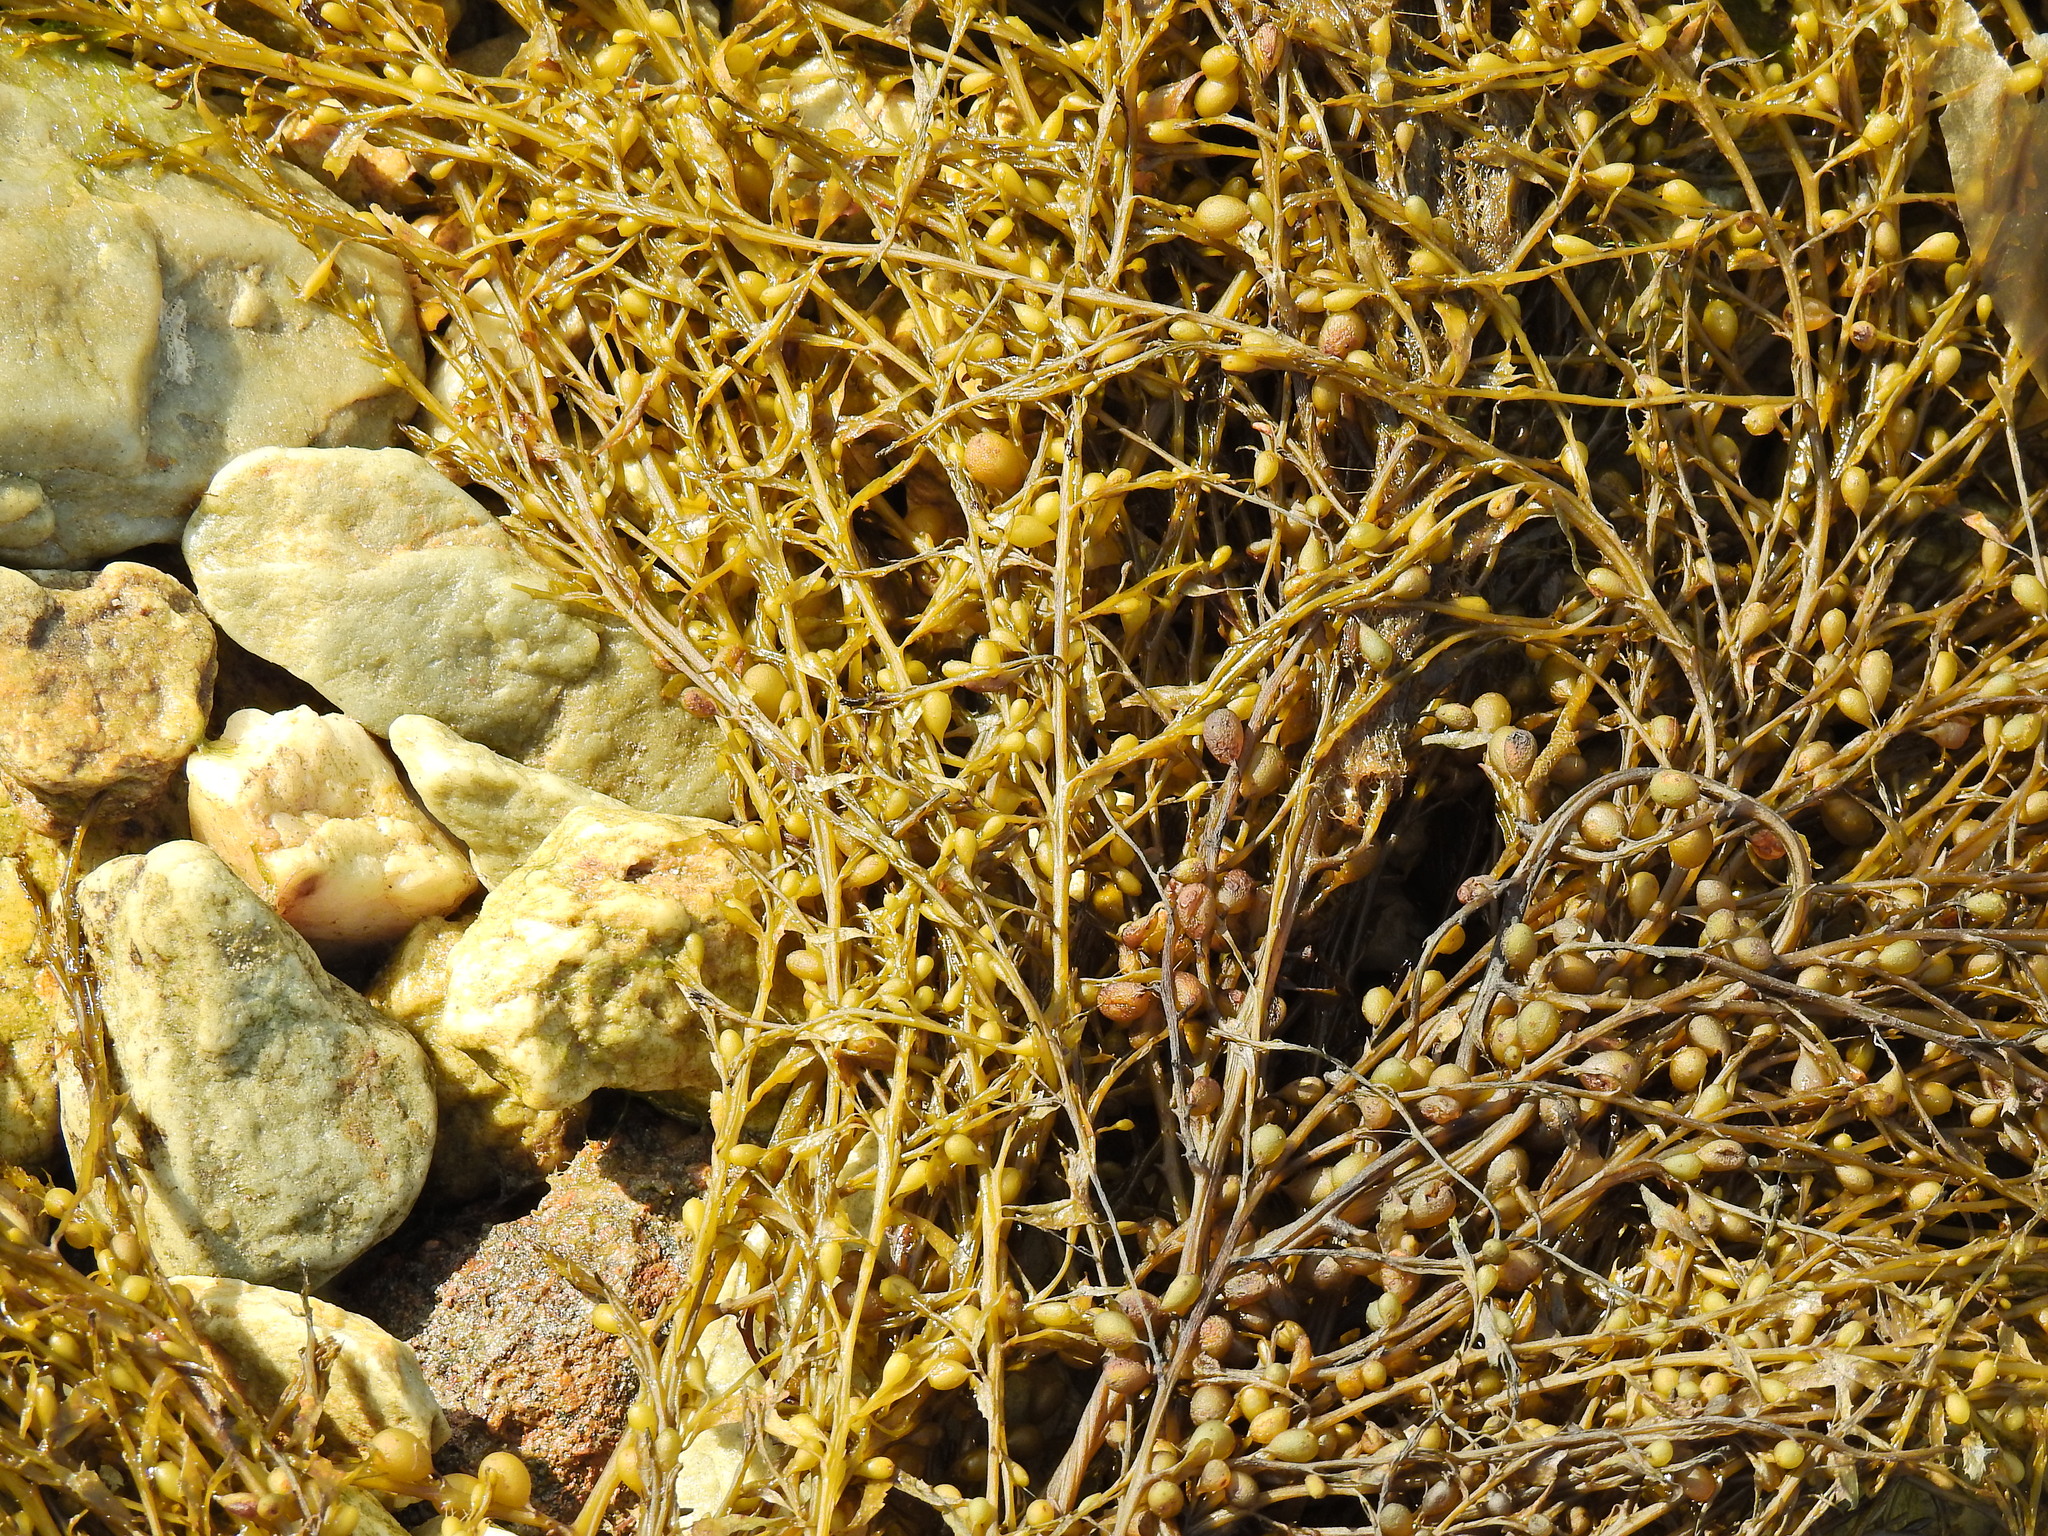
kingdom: Chromista
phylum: Ochrophyta
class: Phaeophyceae
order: Fucales
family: Sargassaceae
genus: Sargassum
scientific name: Sargassum muticum
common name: Japweed
